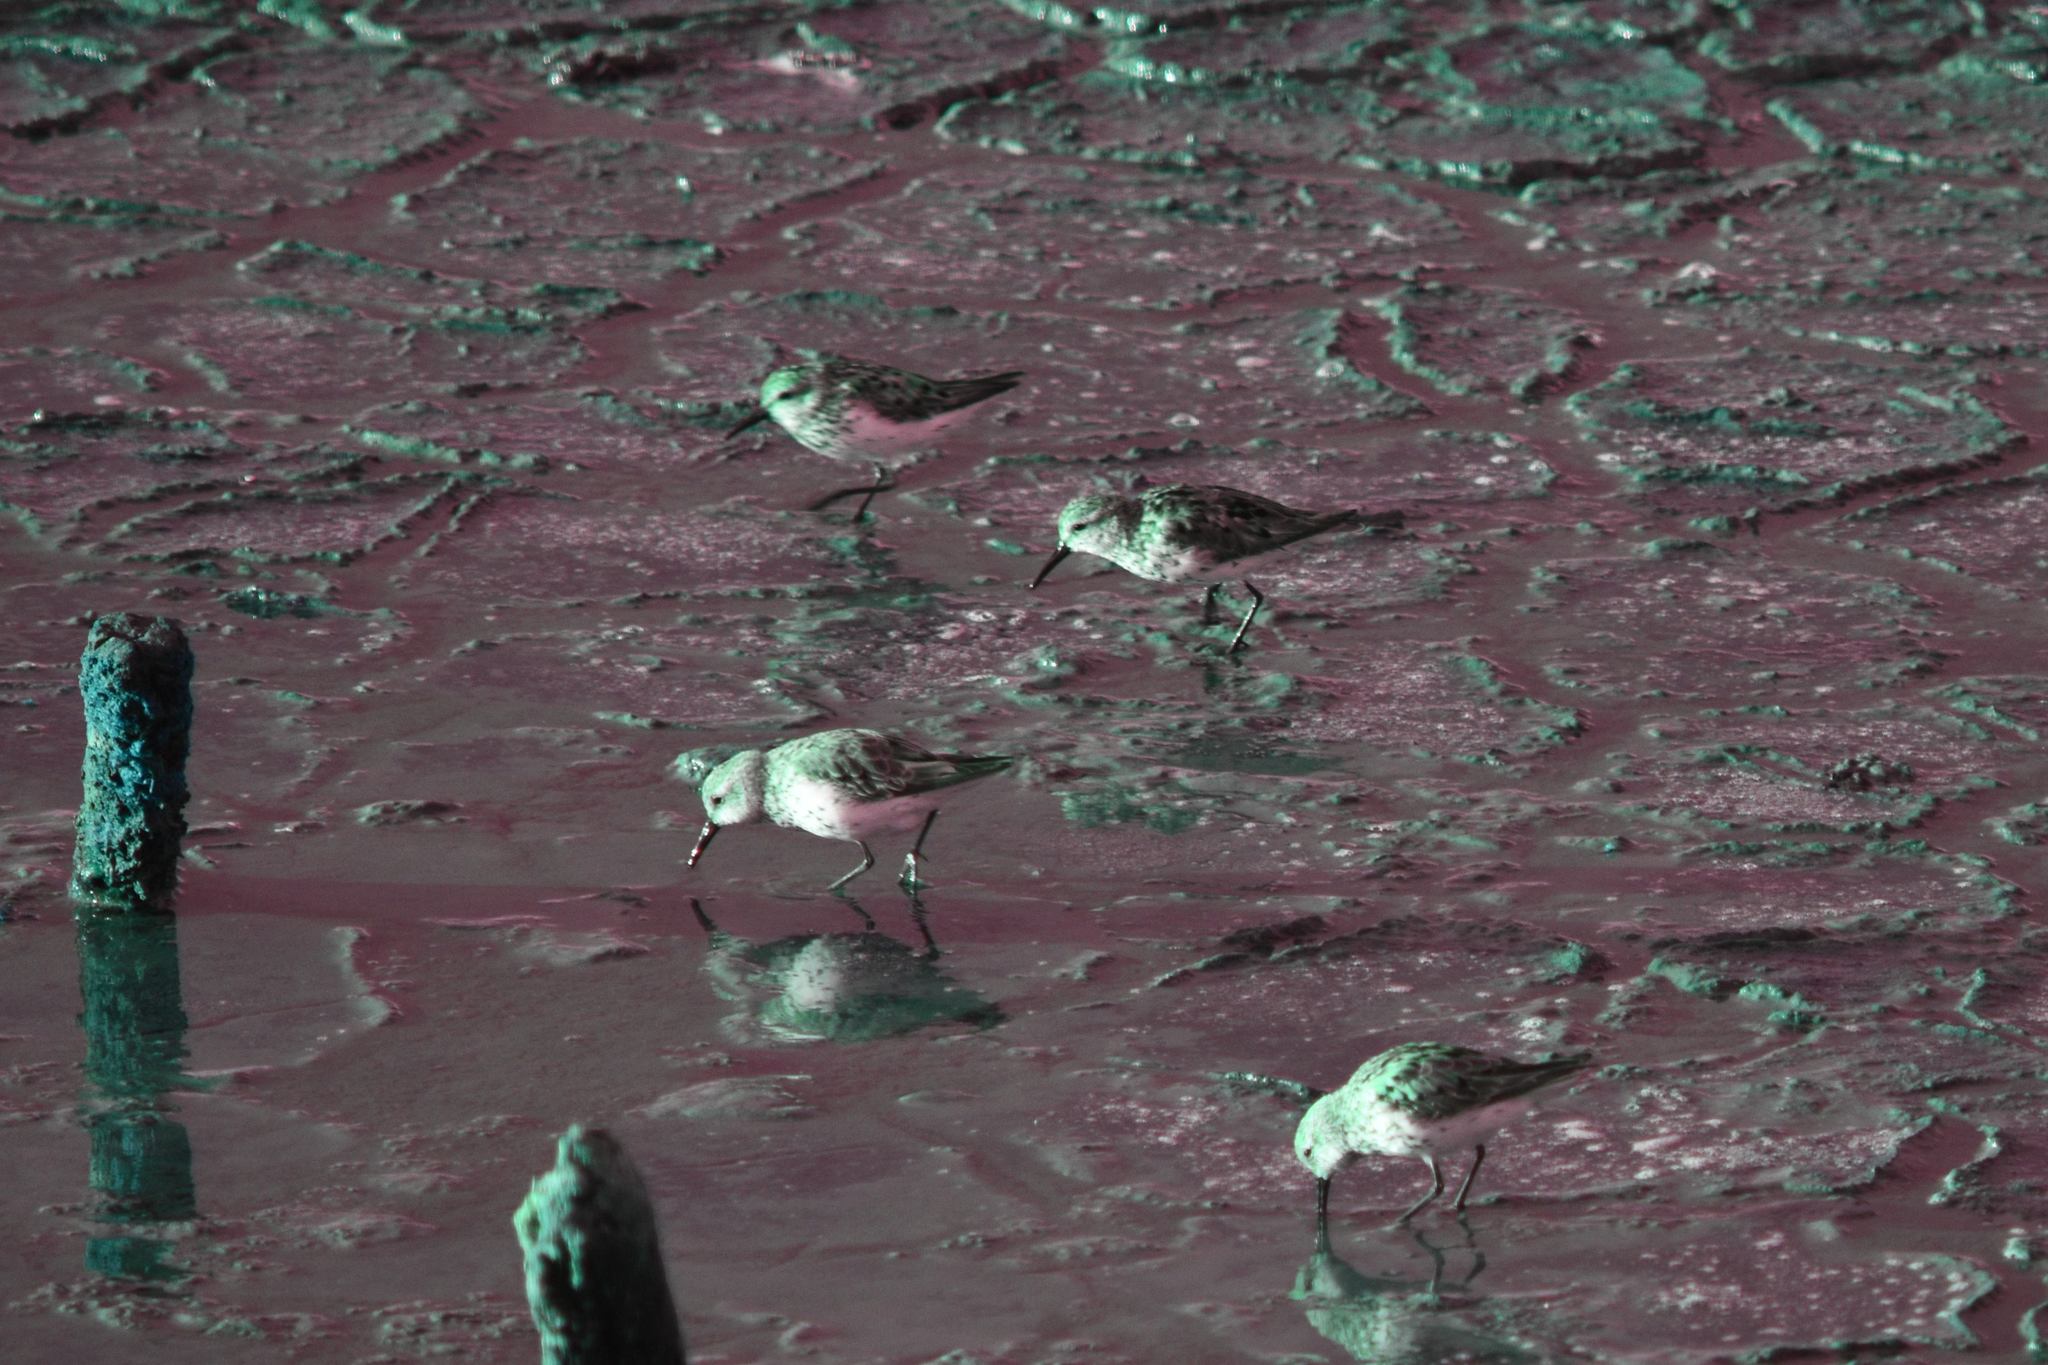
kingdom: Animalia
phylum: Chordata
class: Aves
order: Charadriiformes
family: Scolopacidae
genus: Calidris
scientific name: Calidris mauri
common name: Western sandpiper
